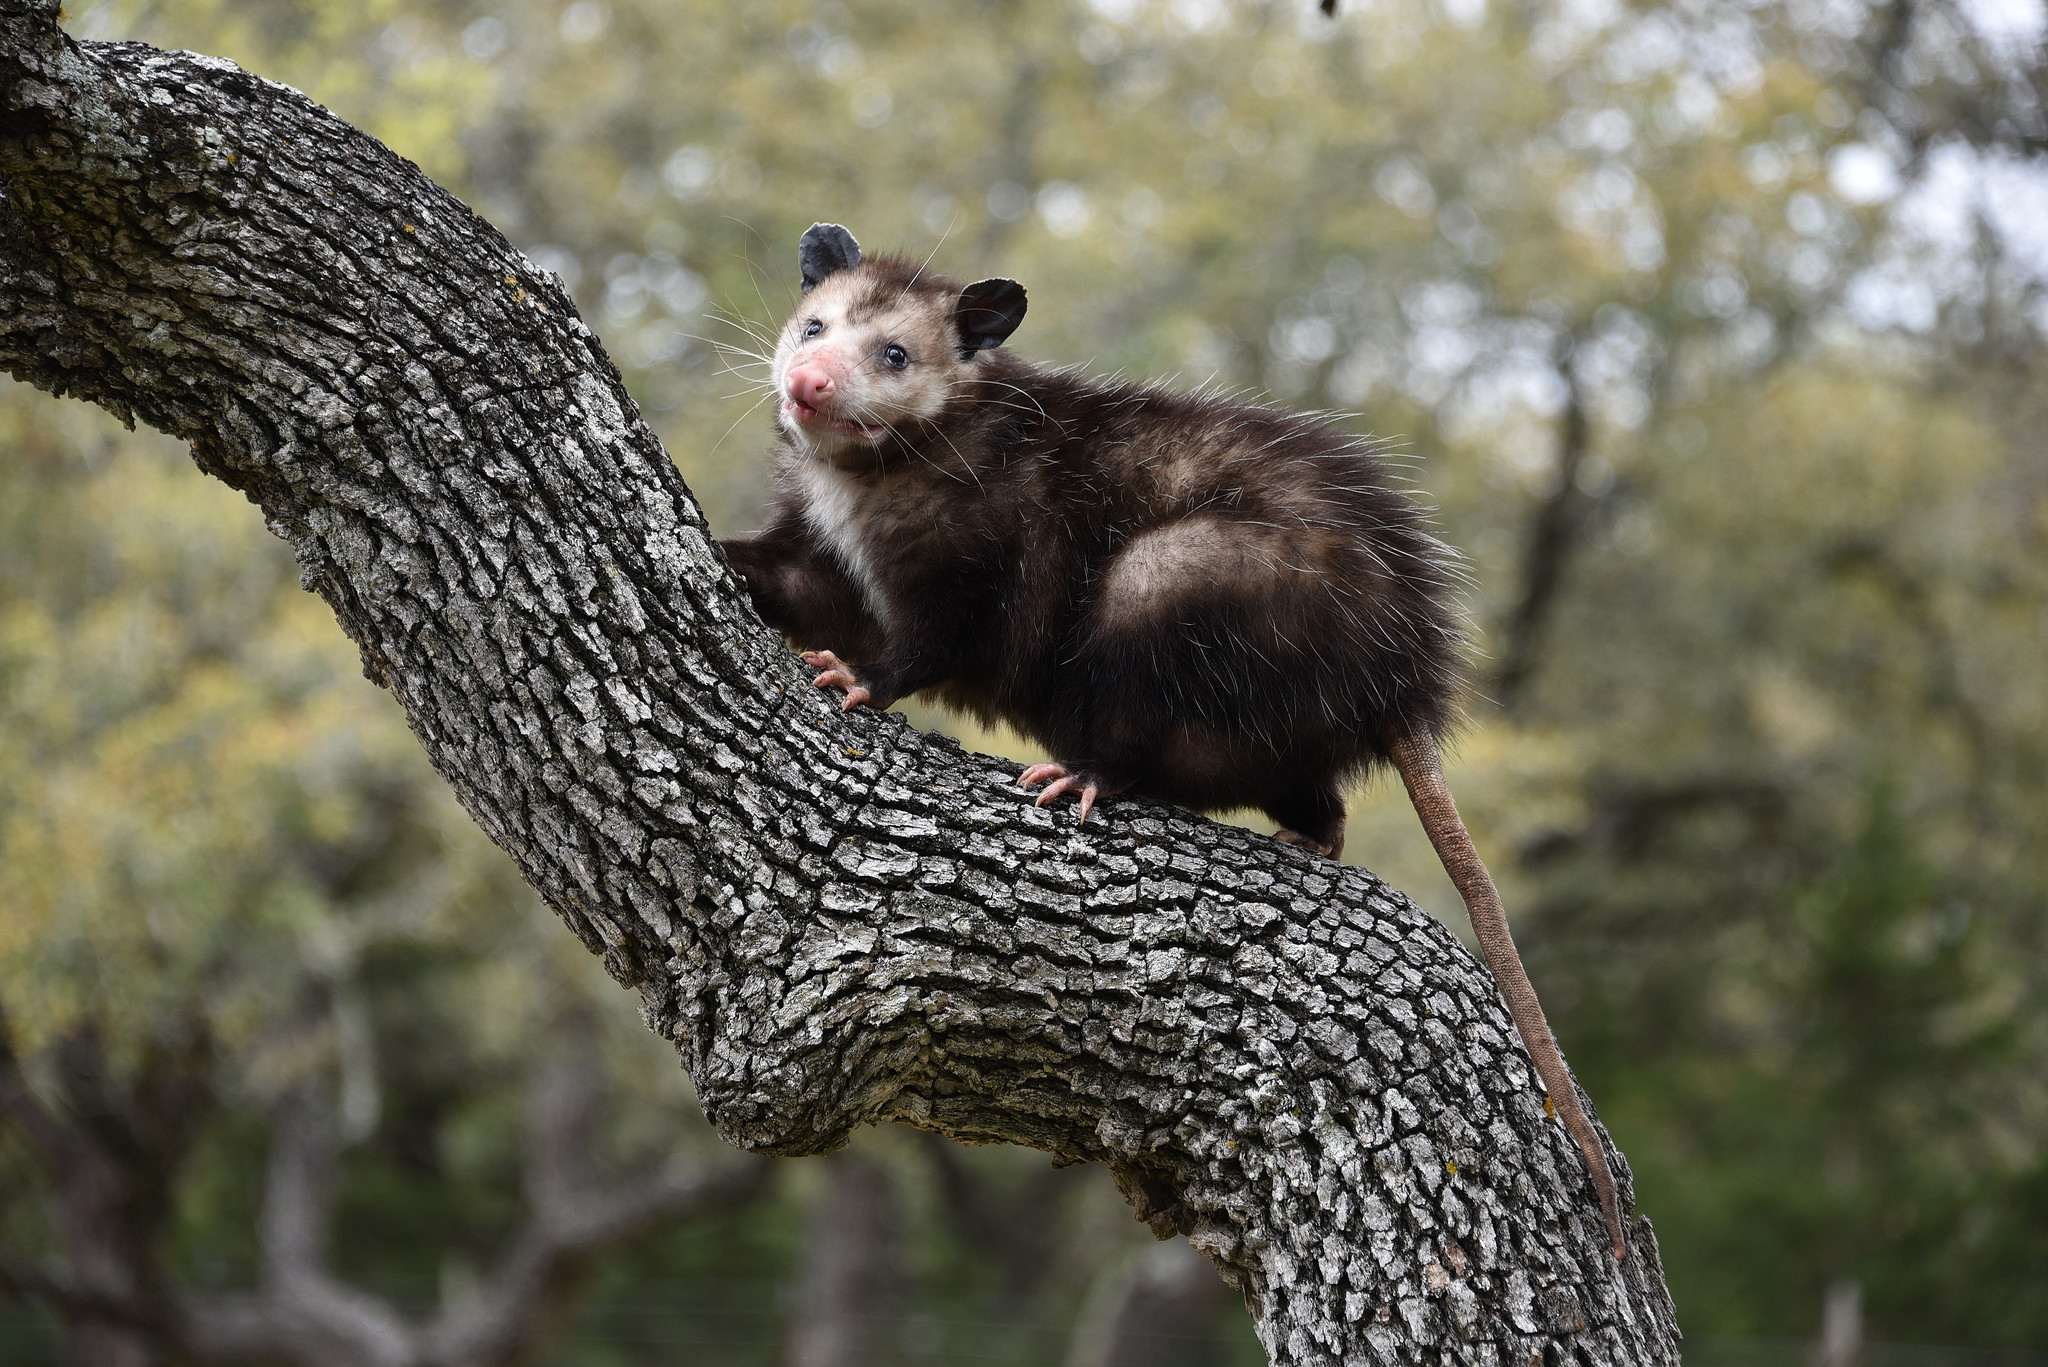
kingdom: Animalia
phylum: Chordata
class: Mammalia
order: Didelphimorphia
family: Didelphidae
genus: Didelphis
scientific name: Didelphis virginiana
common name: Virginia opossum
